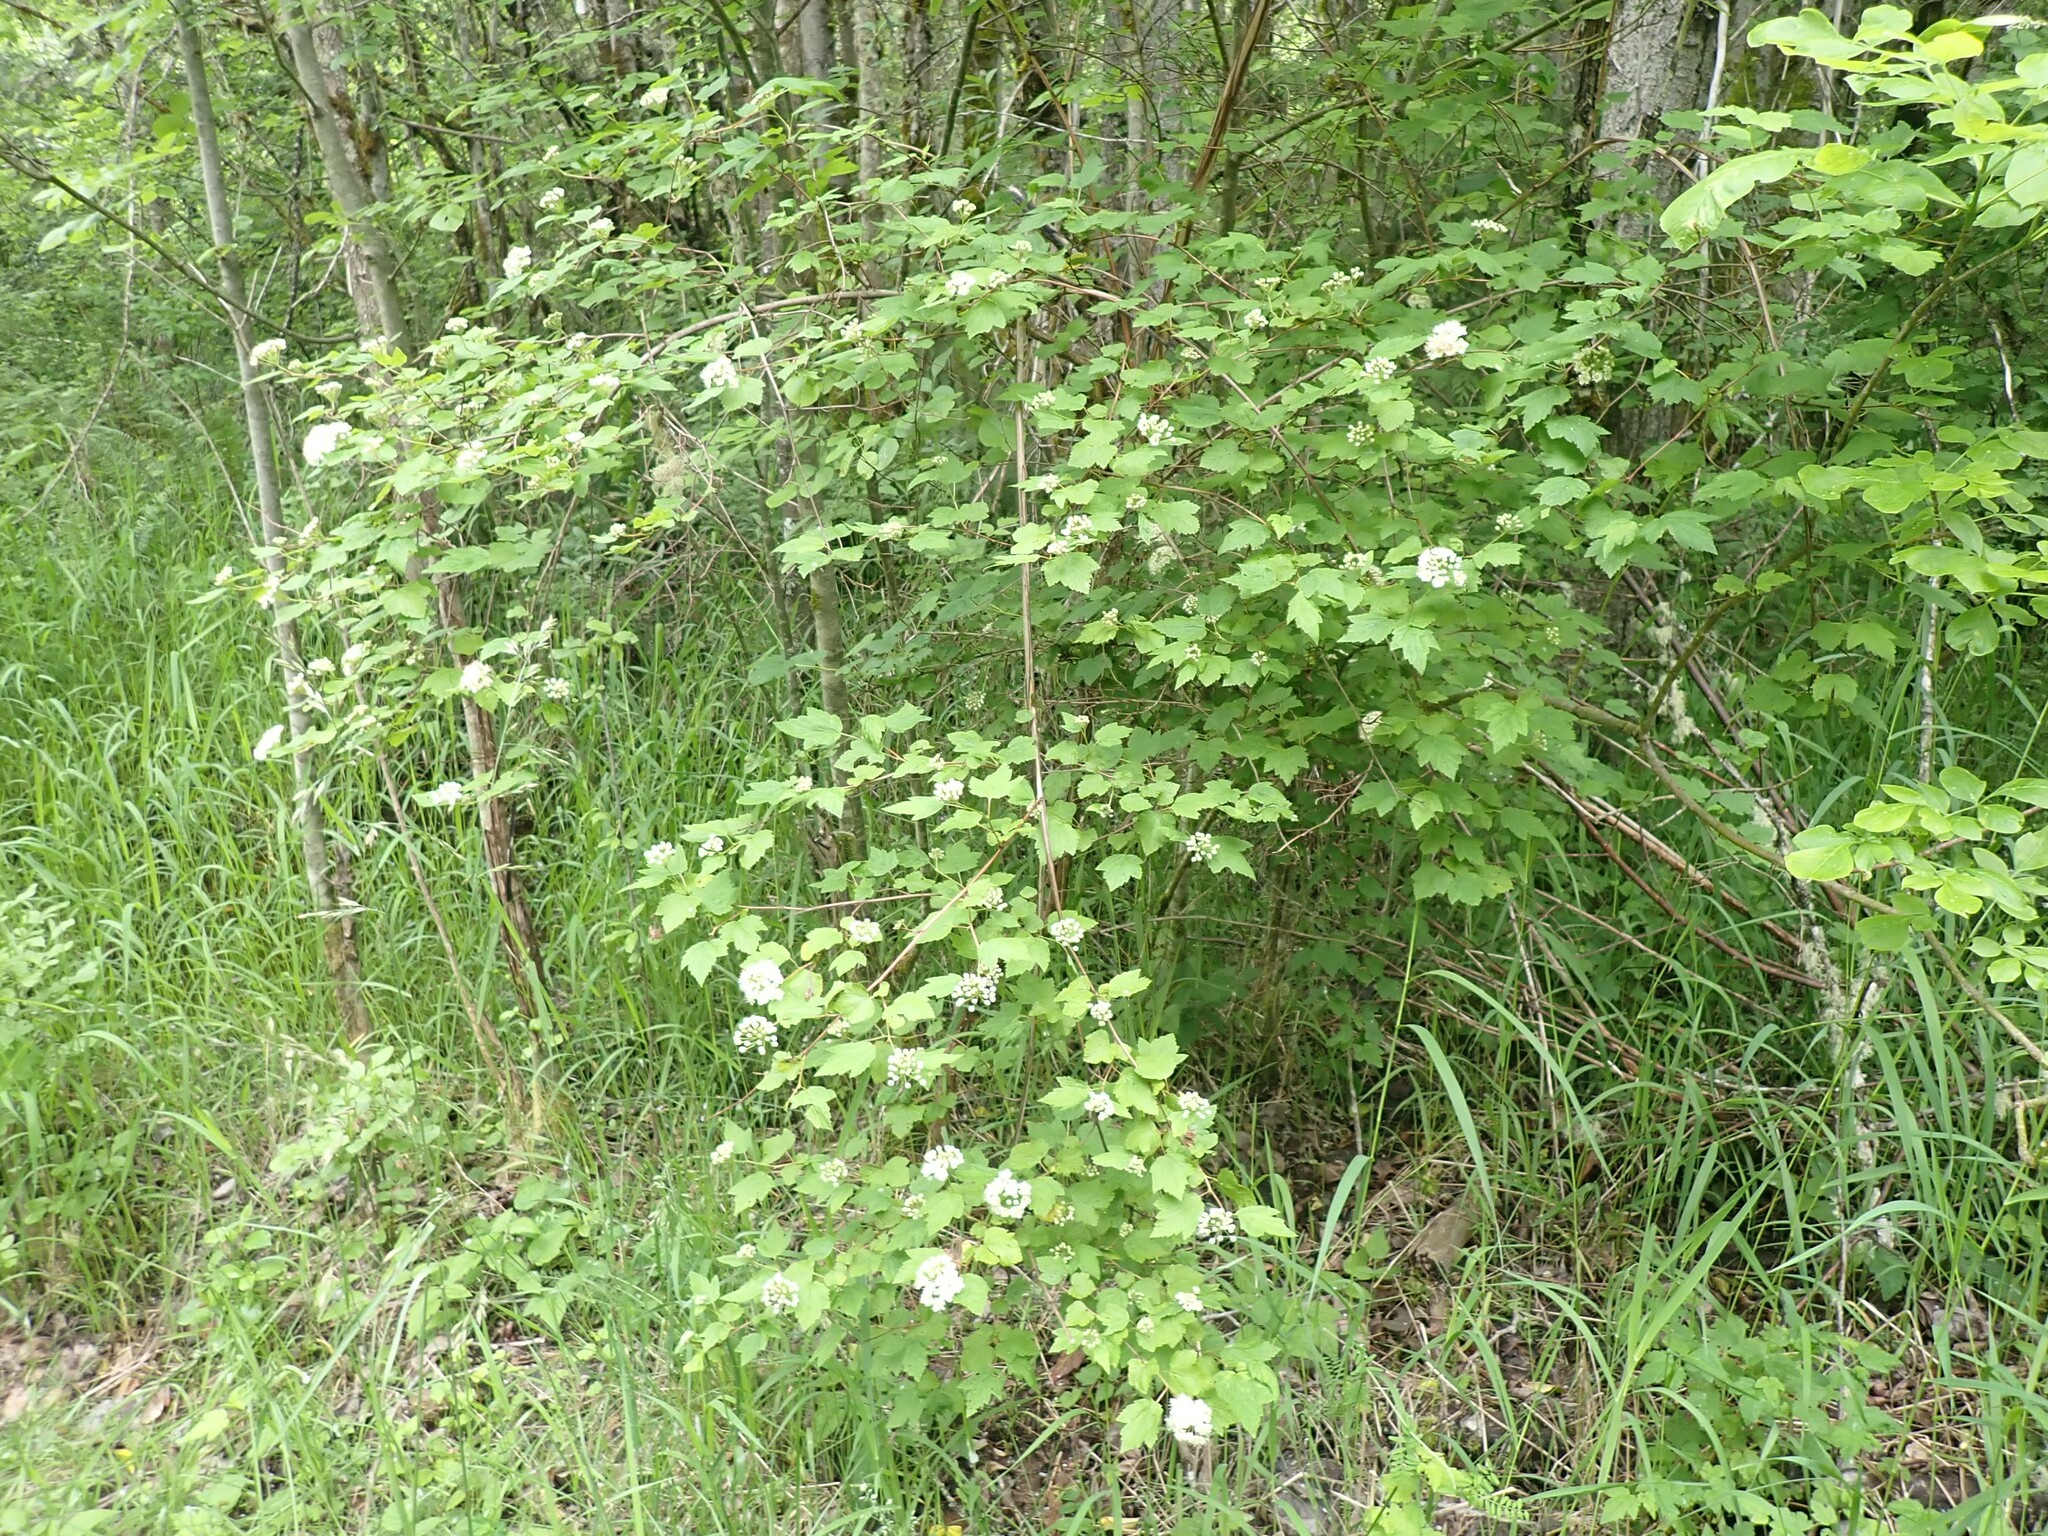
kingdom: Plantae
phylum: Tracheophyta
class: Magnoliopsida
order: Rosales
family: Rosaceae
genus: Physocarpus
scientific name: Physocarpus capitatus
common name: Pacific ninebark
